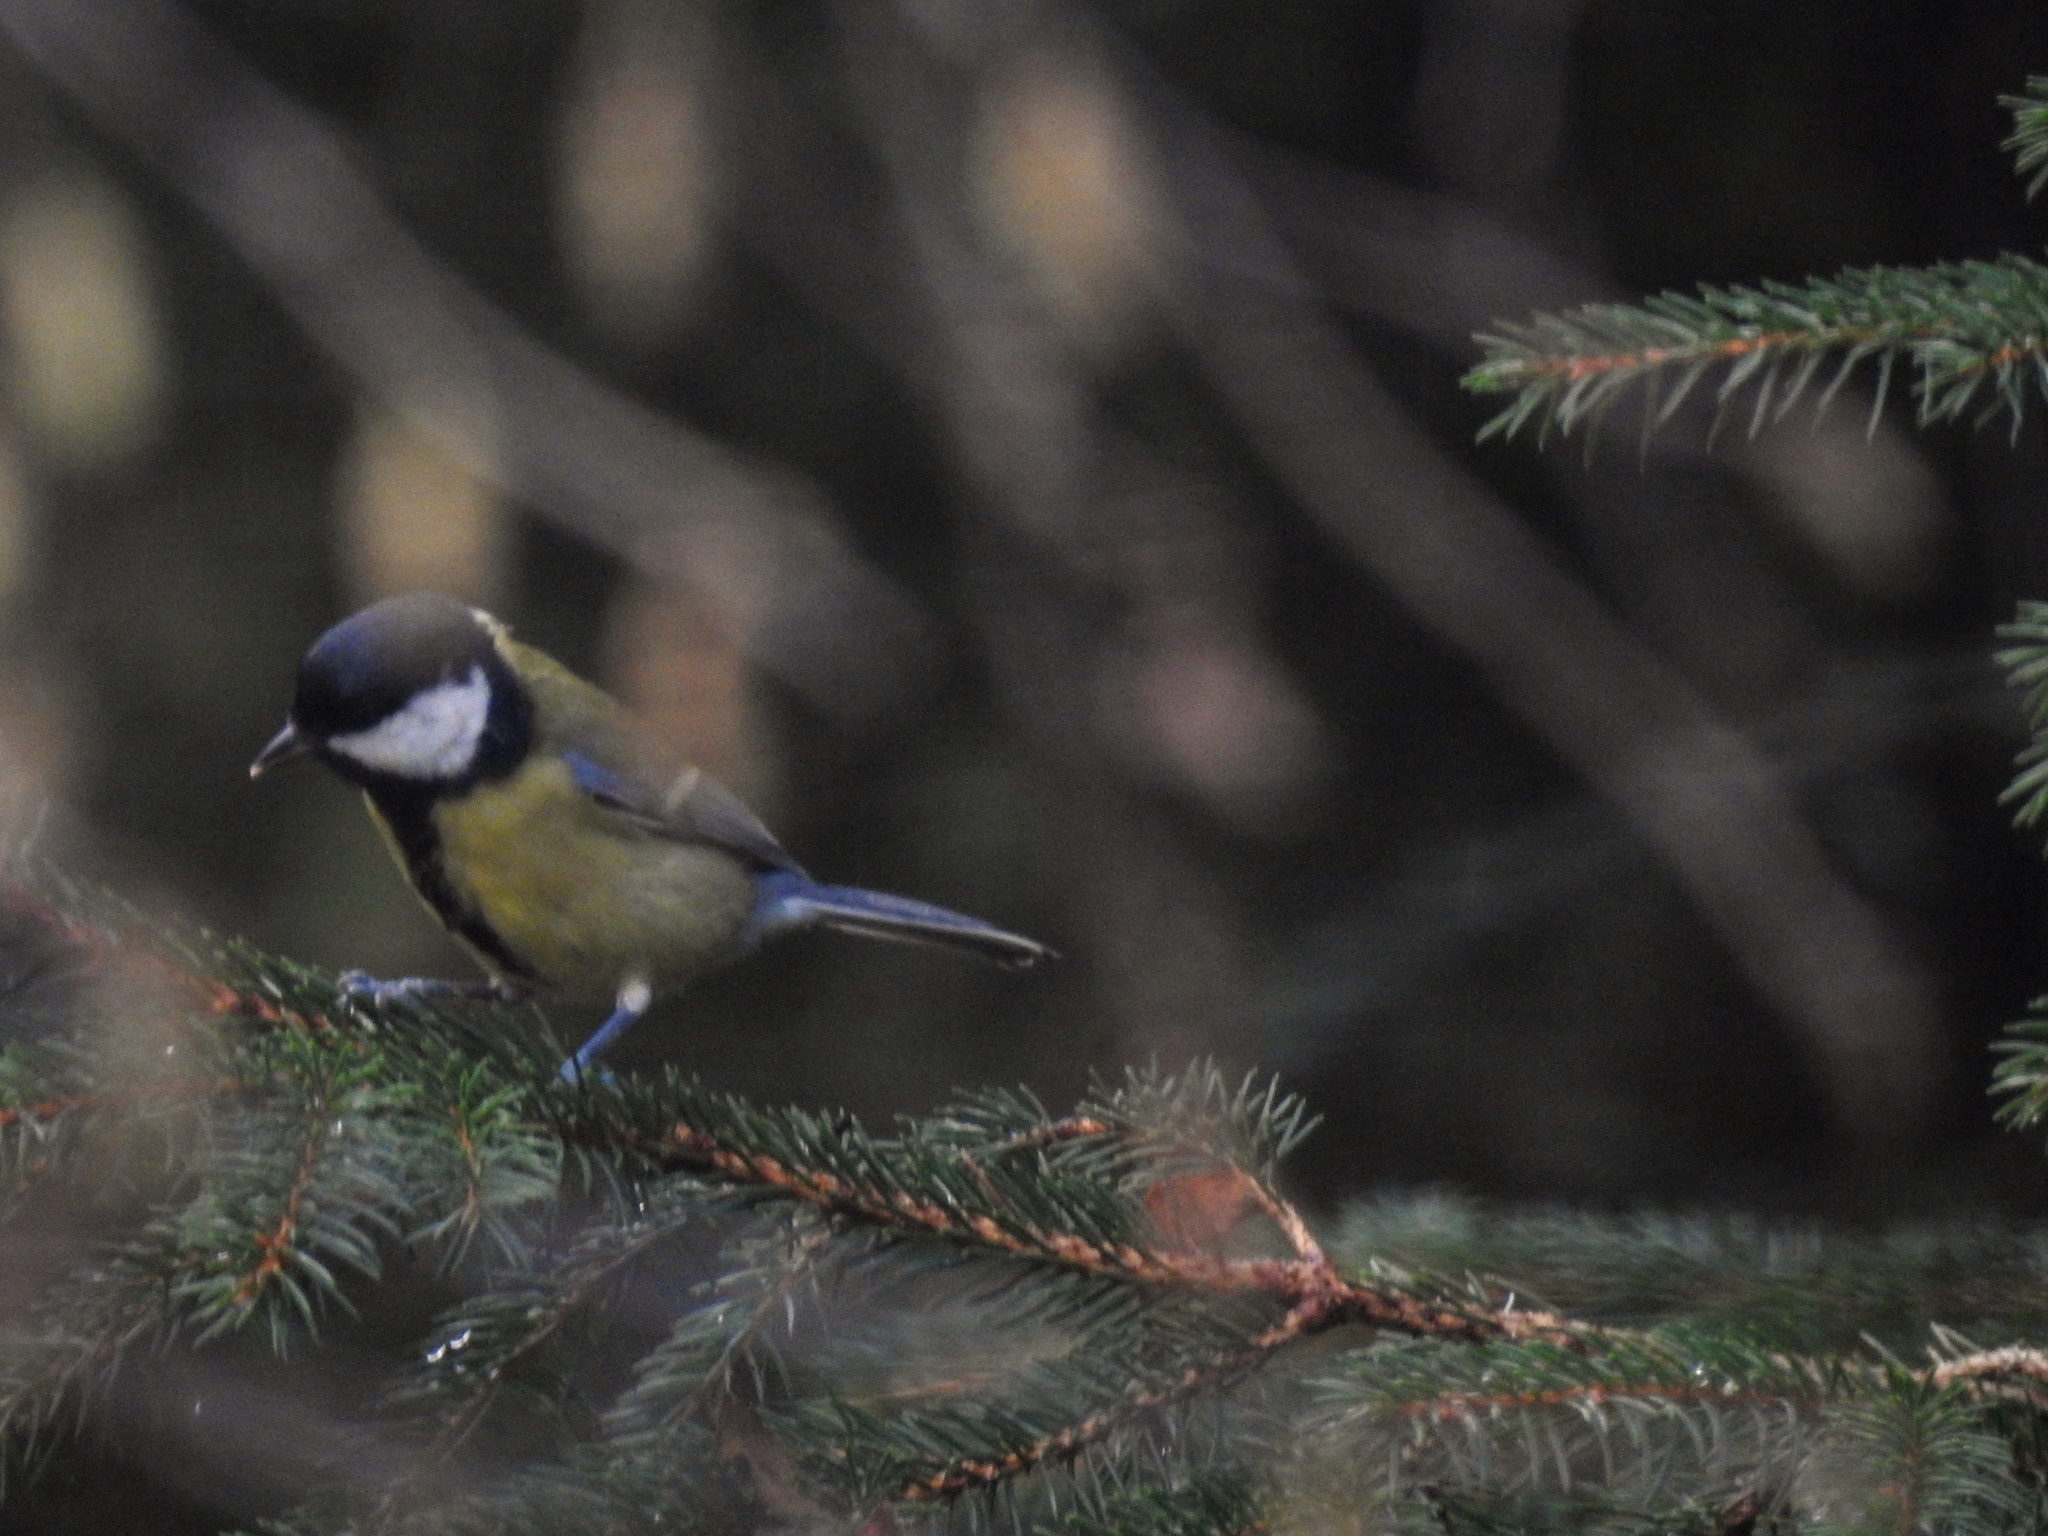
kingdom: Animalia
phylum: Chordata
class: Aves
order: Passeriformes
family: Paridae
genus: Parus
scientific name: Parus major
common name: Great tit
